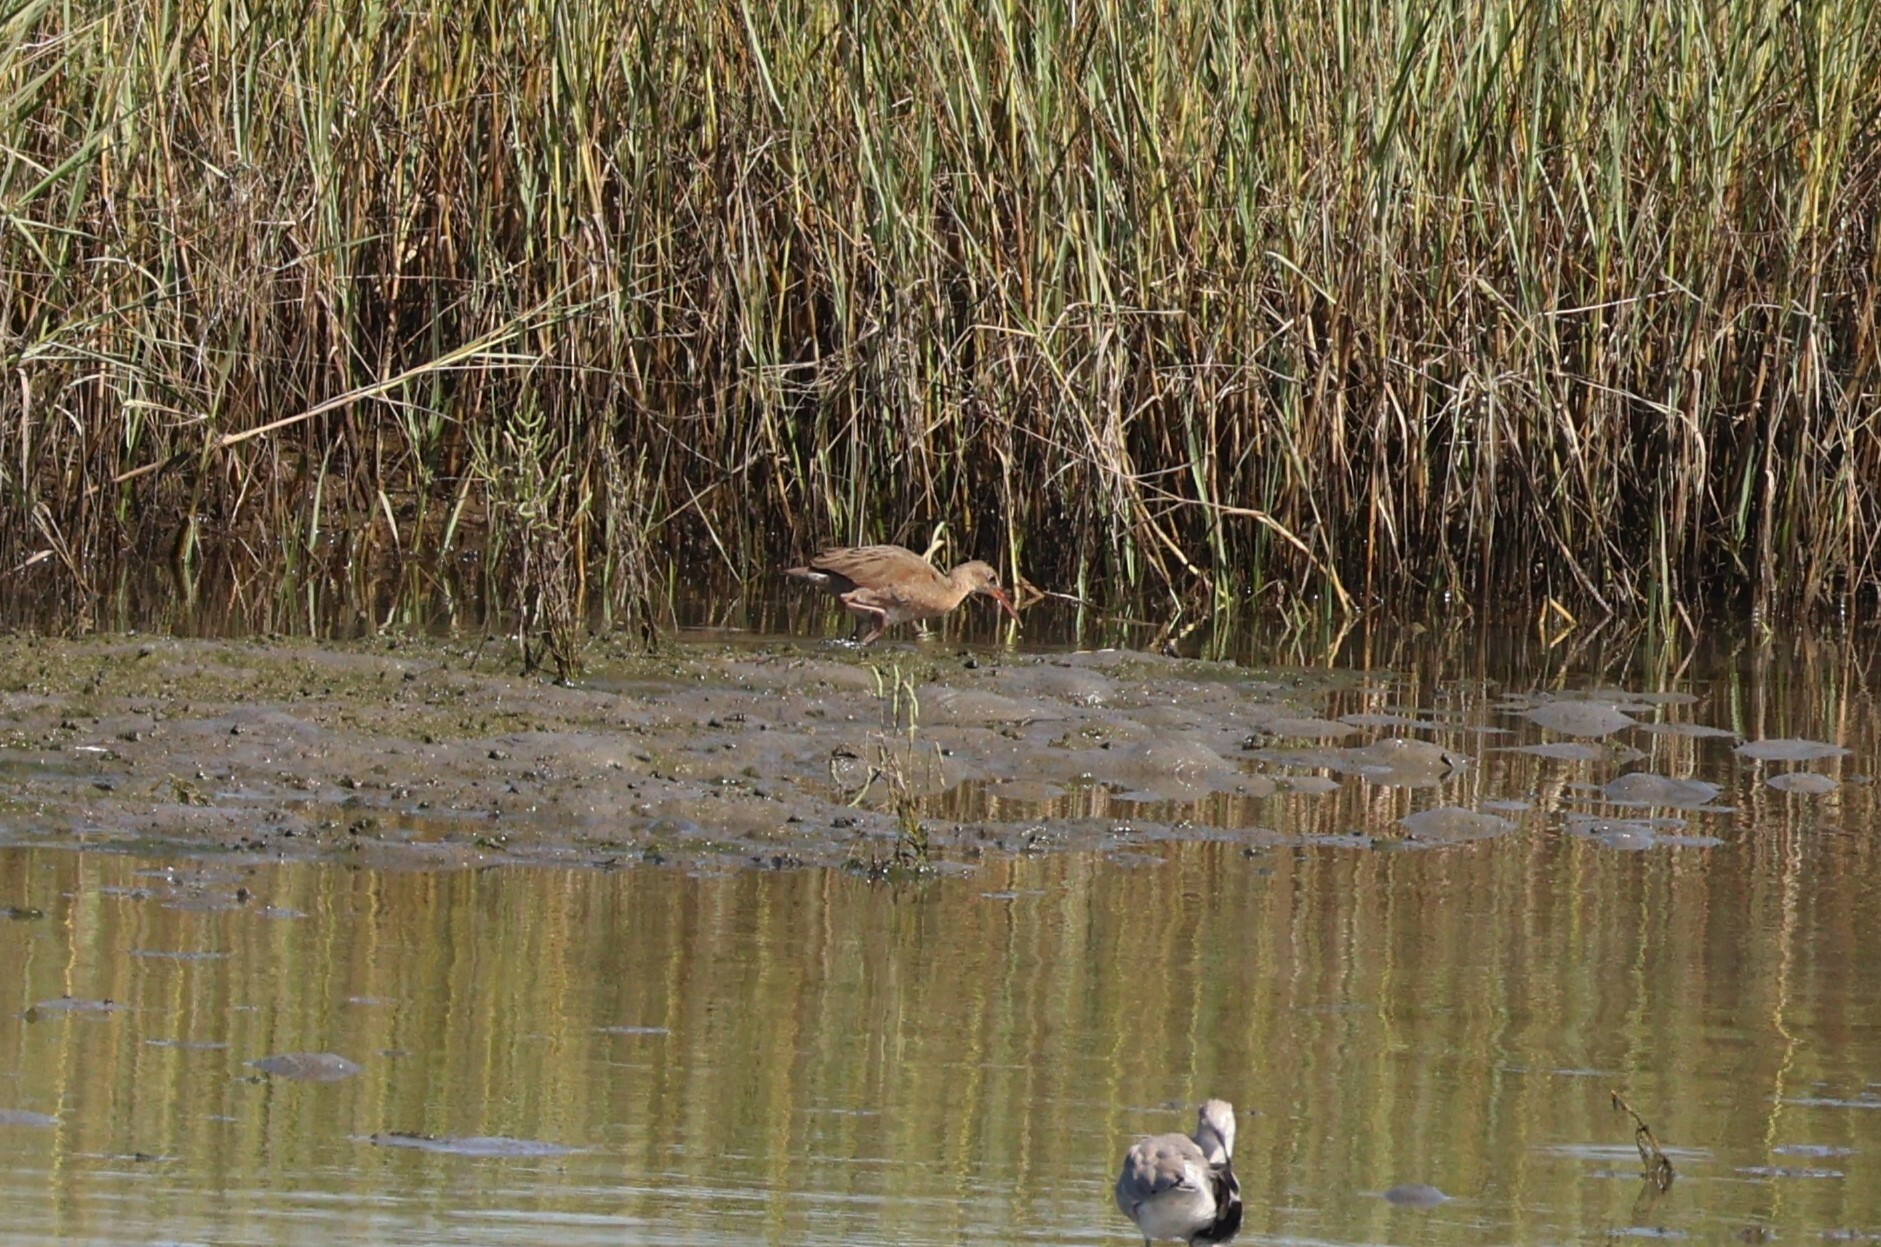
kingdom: Animalia
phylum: Chordata
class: Aves
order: Gruiformes
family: Rallidae
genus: Rallus
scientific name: Rallus obsoletus
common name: Ridgway's rail
